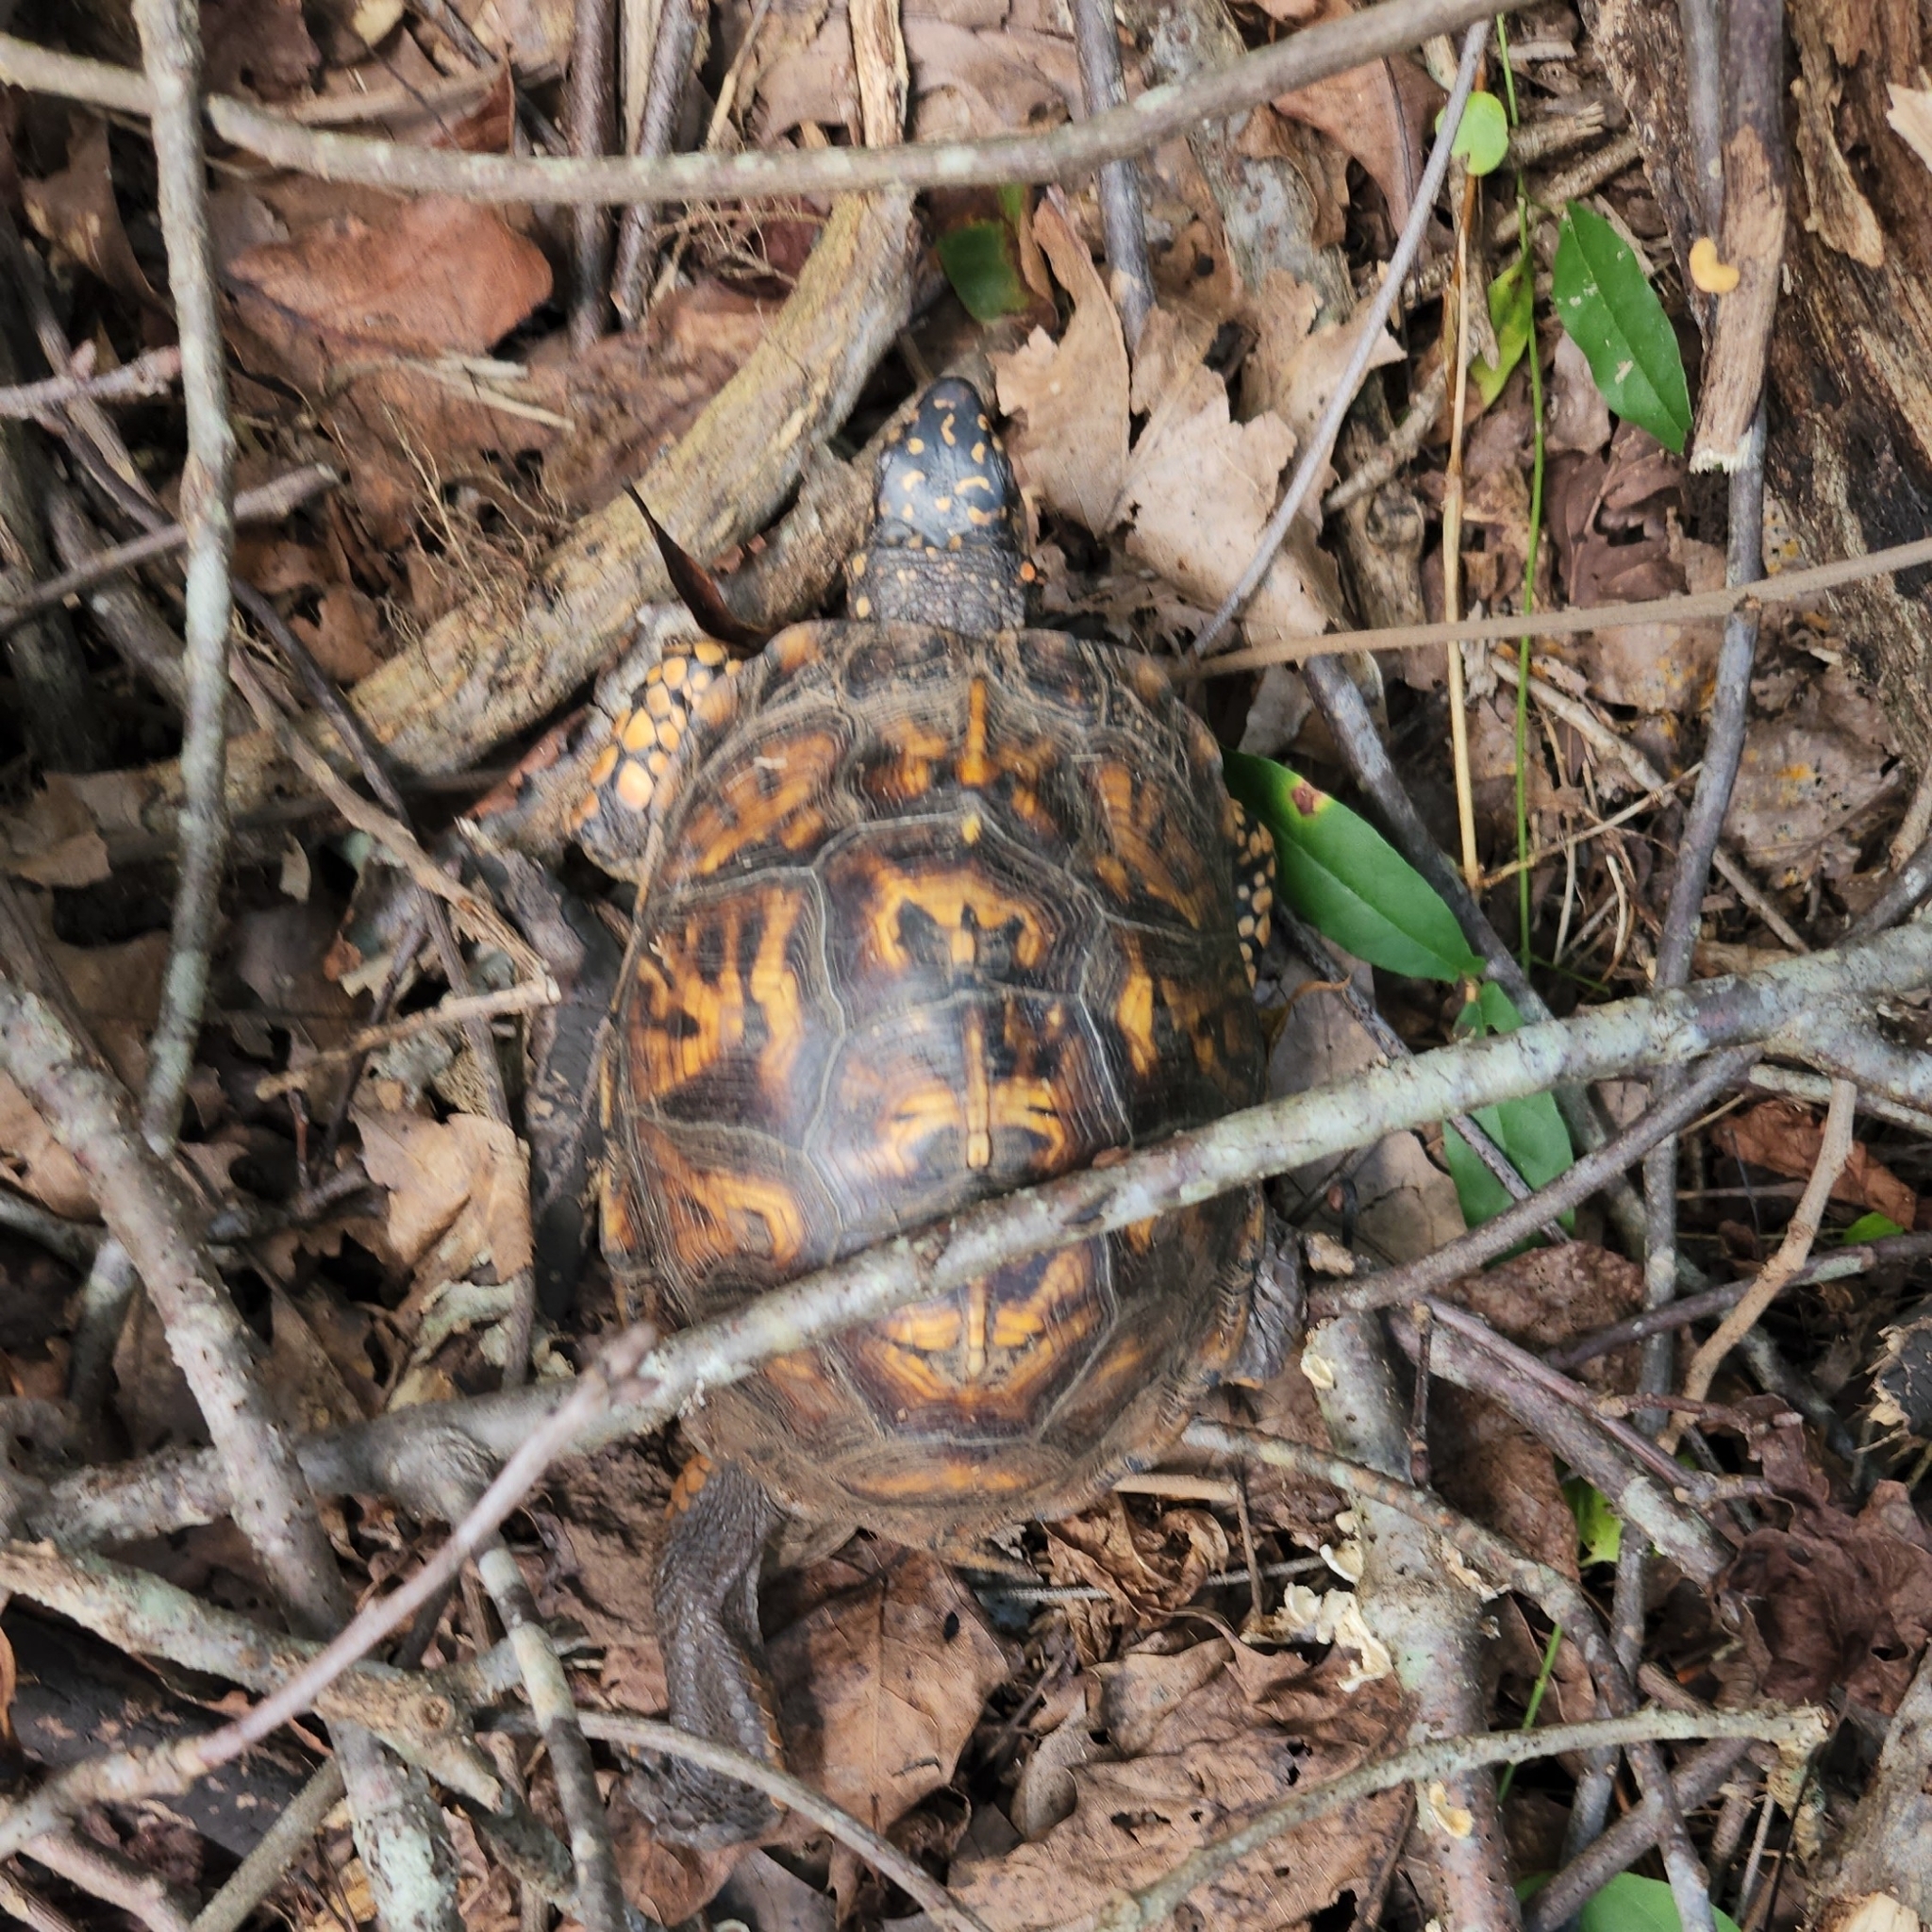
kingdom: Animalia
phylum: Chordata
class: Testudines
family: Emydidae
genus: Terrapene
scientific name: Terrapene carolina
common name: Common box turtle
